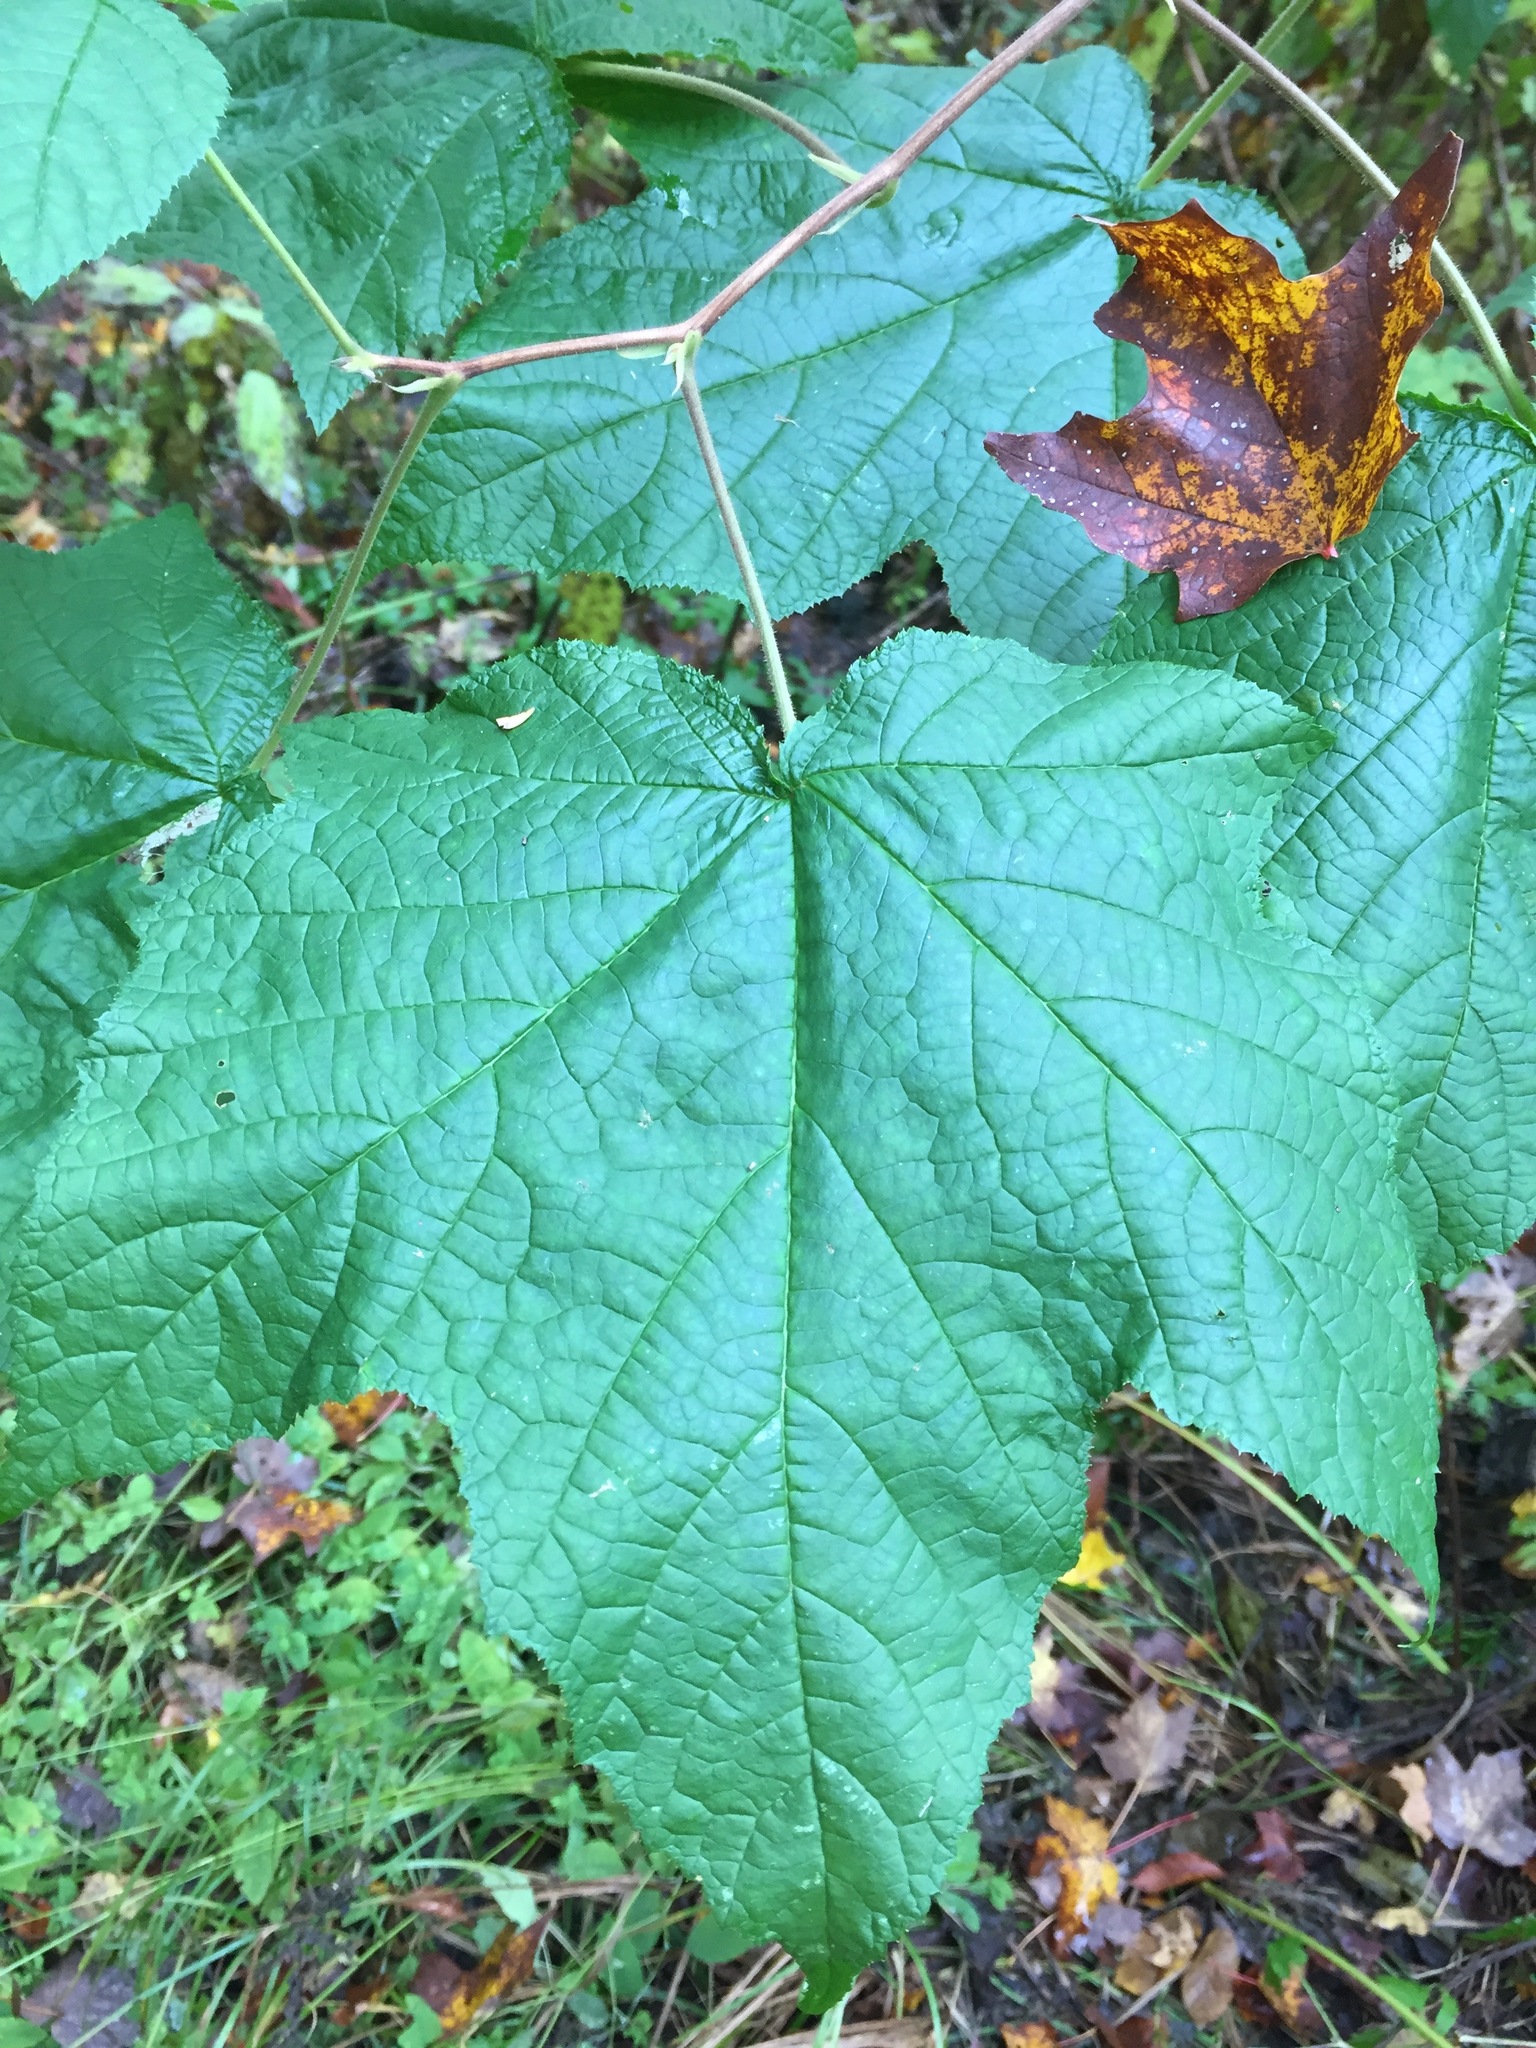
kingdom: Plantae
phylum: Tracheophyta
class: Magnoliopsida
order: Rosales
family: Rosaceae
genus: Rubus
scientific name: Rubus odoratus
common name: Purple-flowered raspberry
